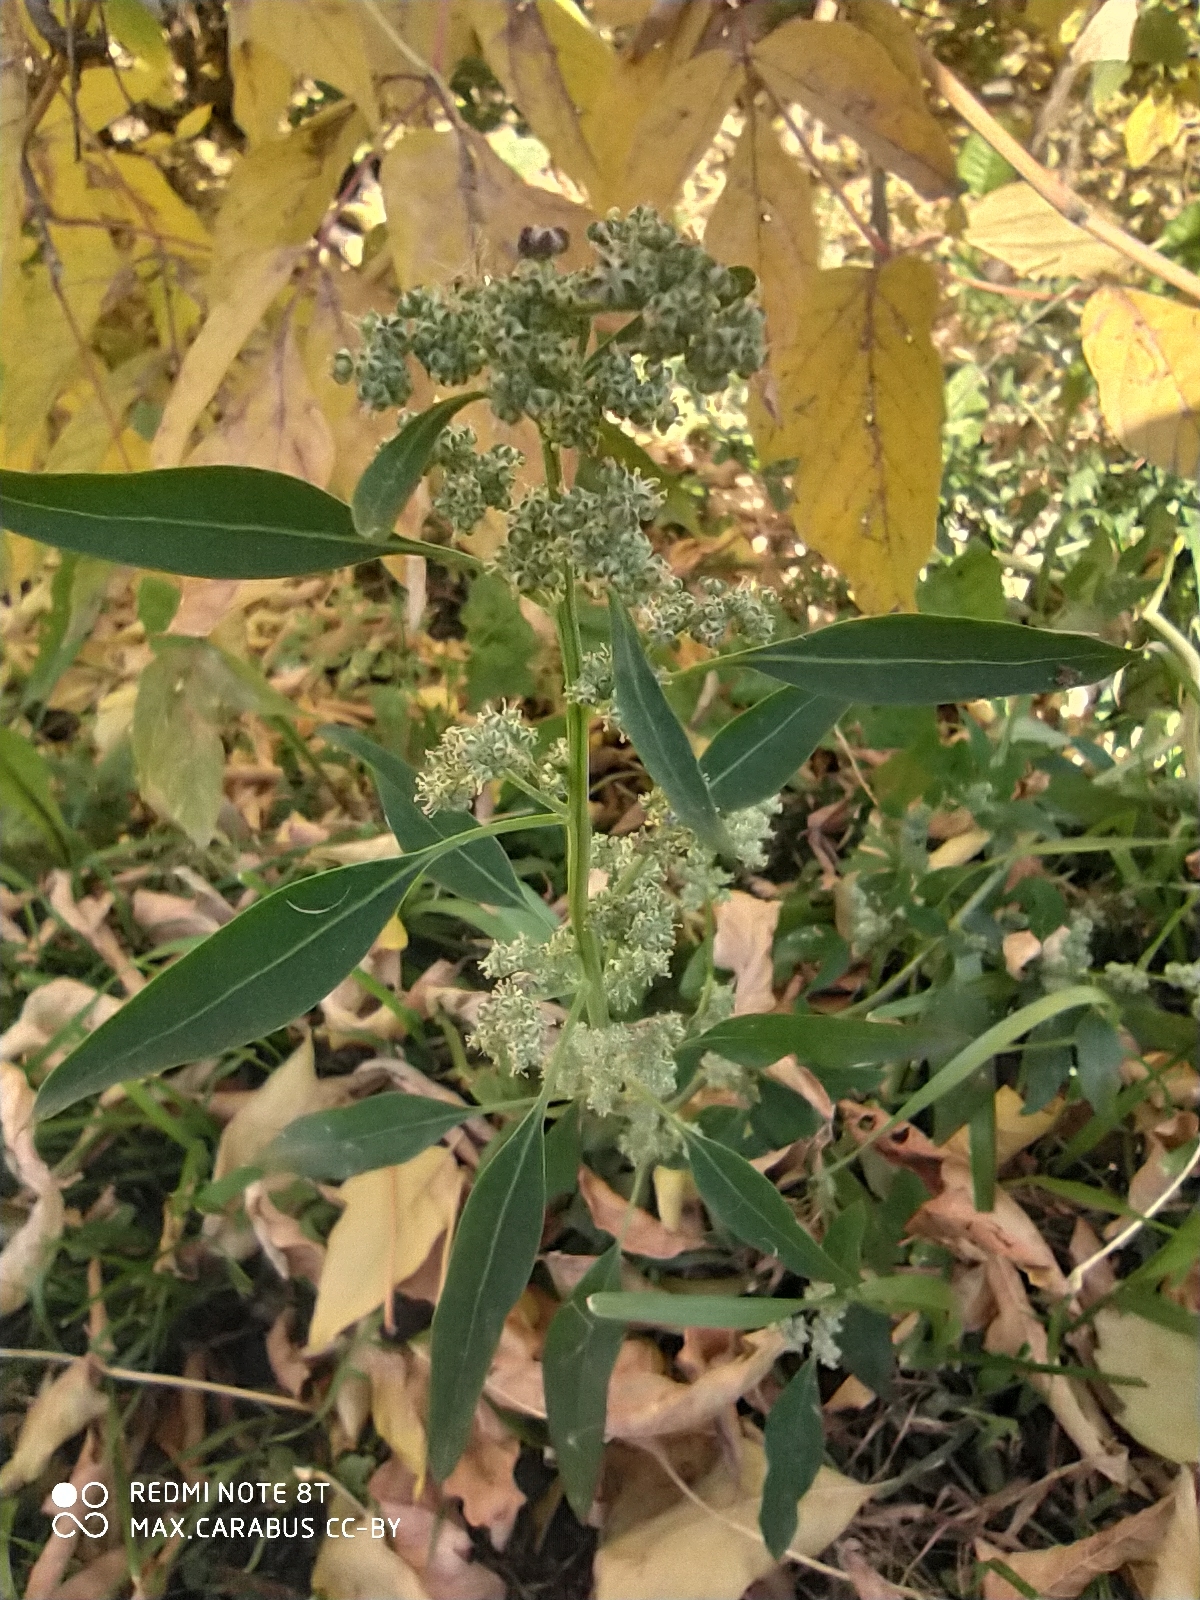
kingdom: Plantae
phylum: Tracheophyta
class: Magnoliopsida
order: Caryophyllales
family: Amaranthaceae
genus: Chenopodium
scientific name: Chenopodium album
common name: Fat-hen
